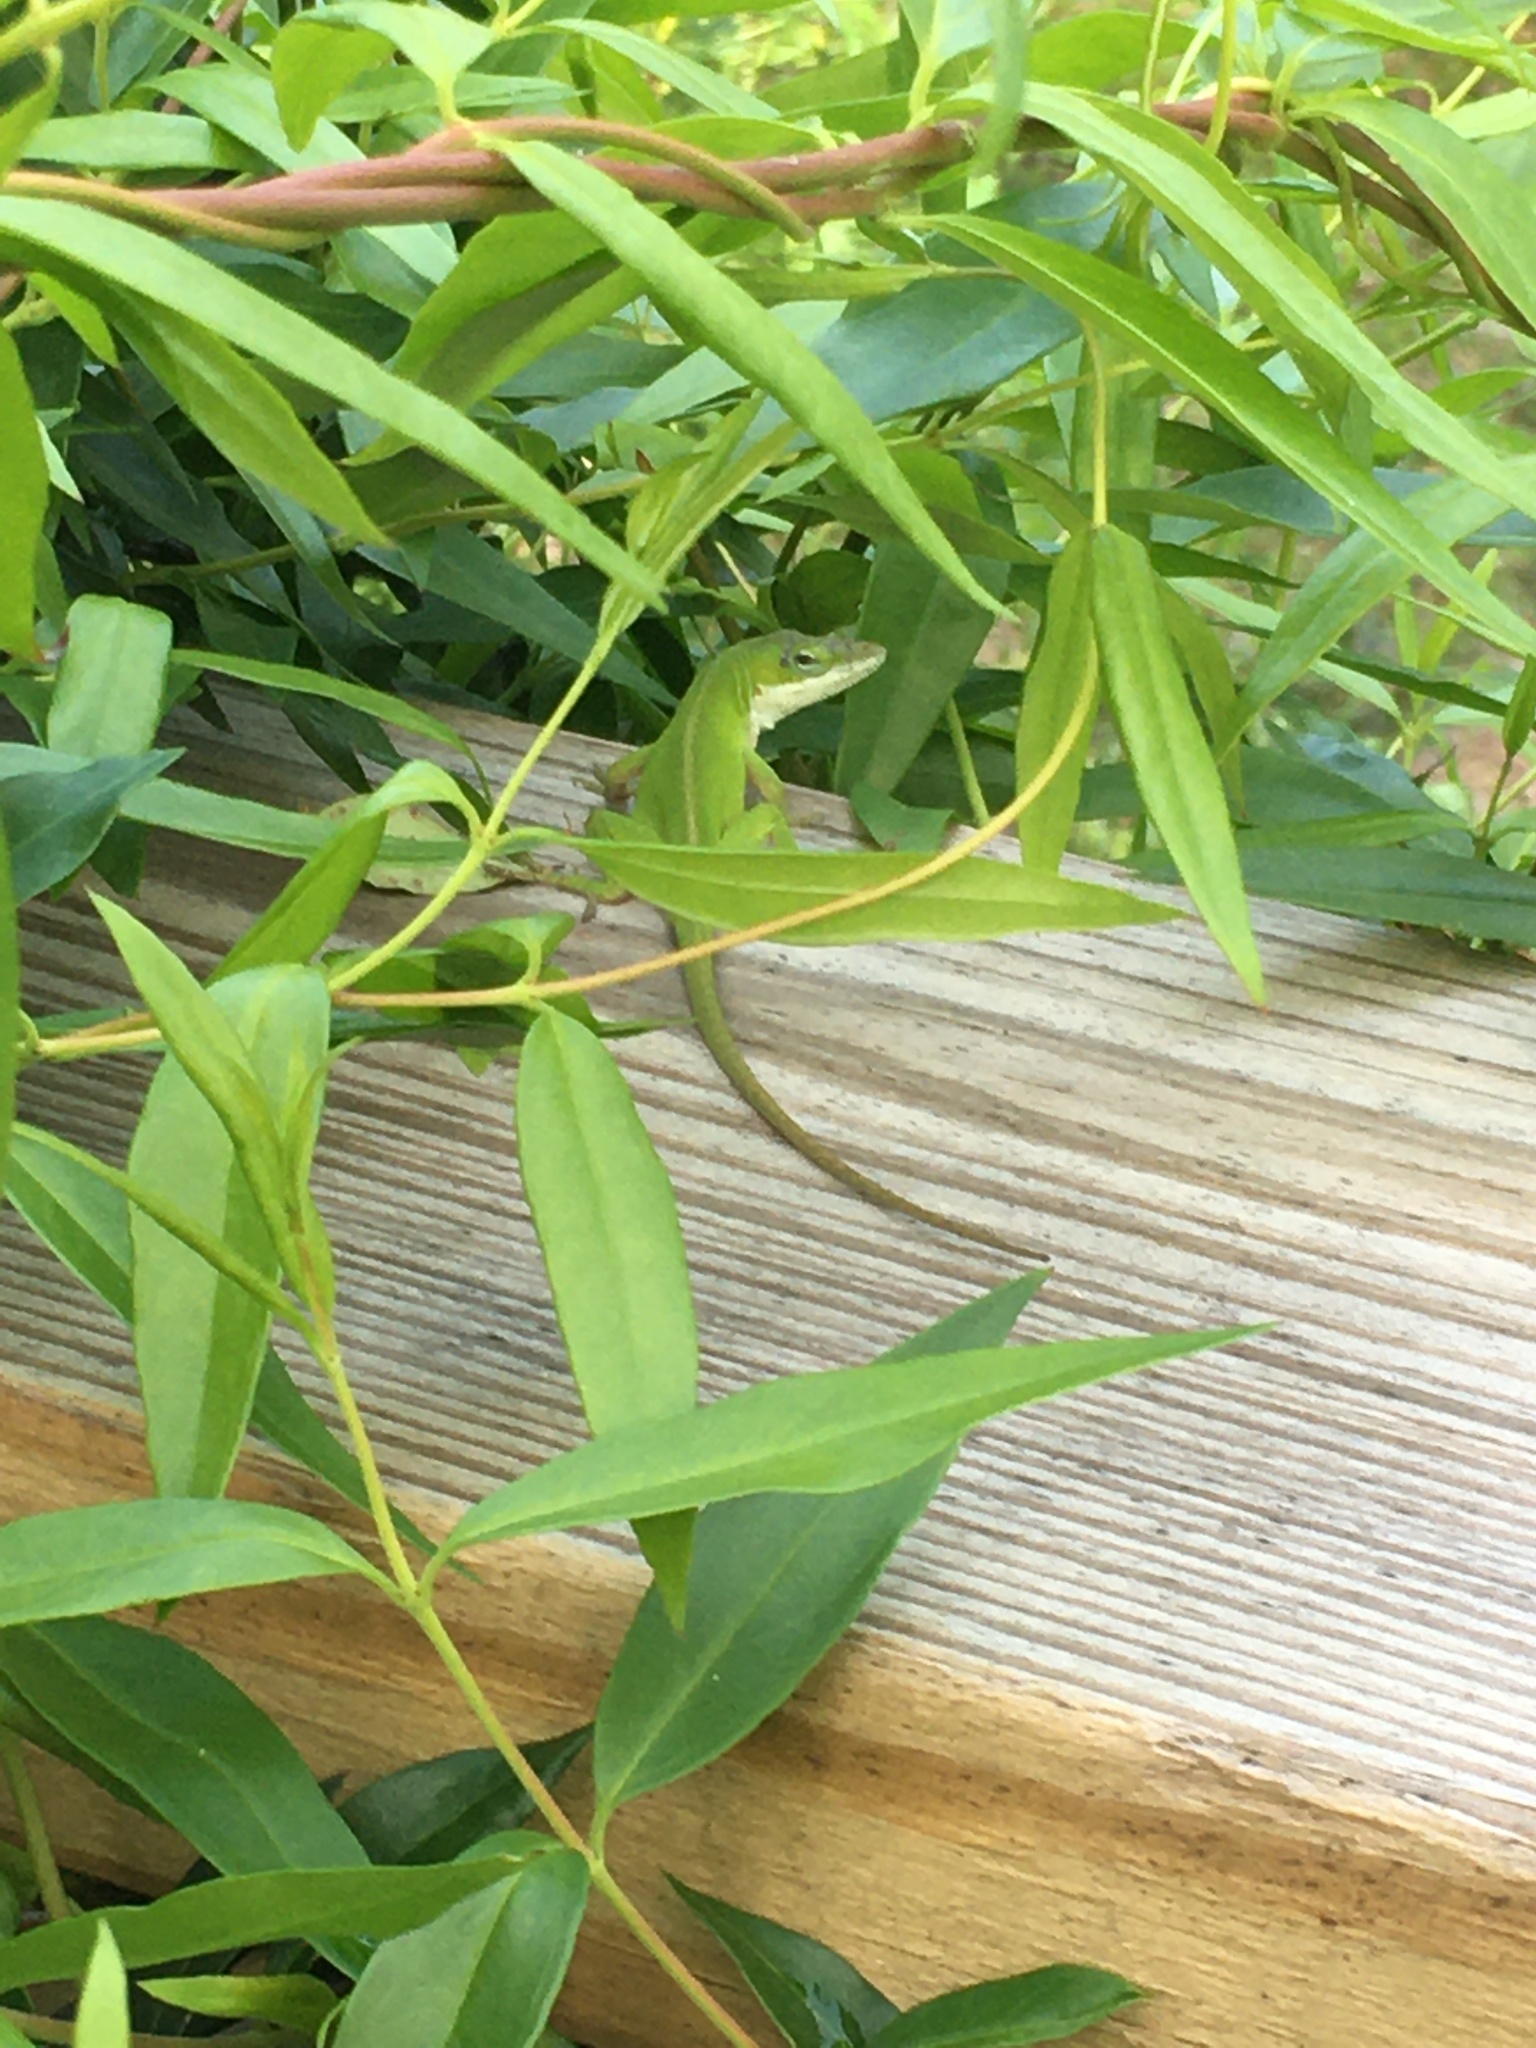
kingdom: Animalia
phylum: Chordata
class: Squamata
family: Dactyloidae
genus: Anolis
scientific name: Anolis carolinensis
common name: Green anole
